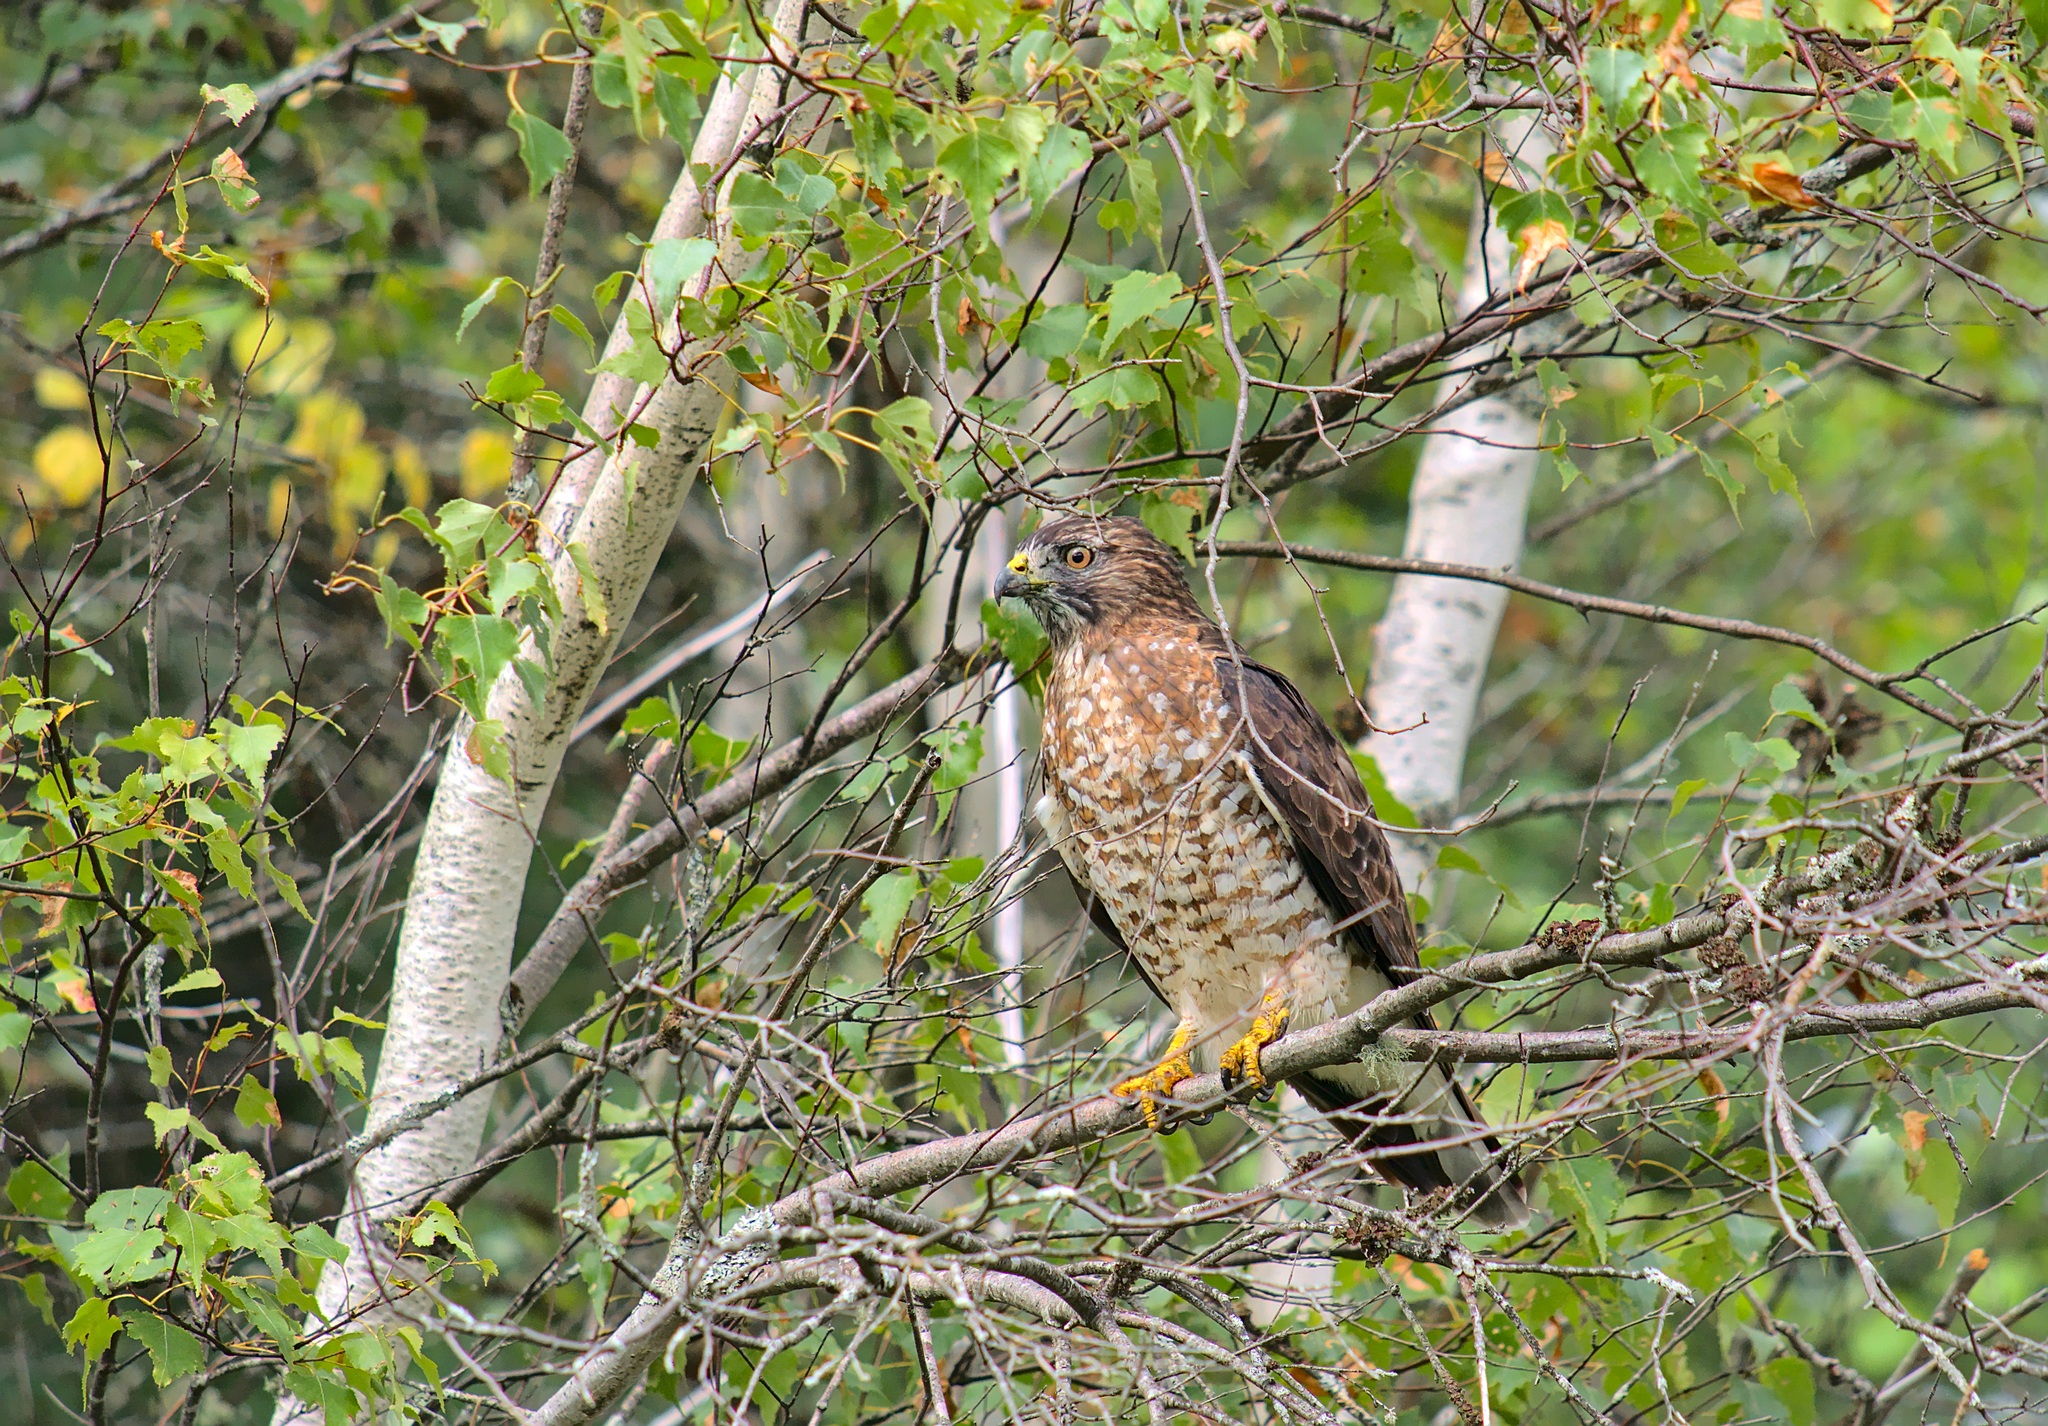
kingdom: Animalia
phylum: Chordata
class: Aves
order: Accipitriformes
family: Accipitridae
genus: Buteo
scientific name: Buteo platypterus
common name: Broad-winged hawk
